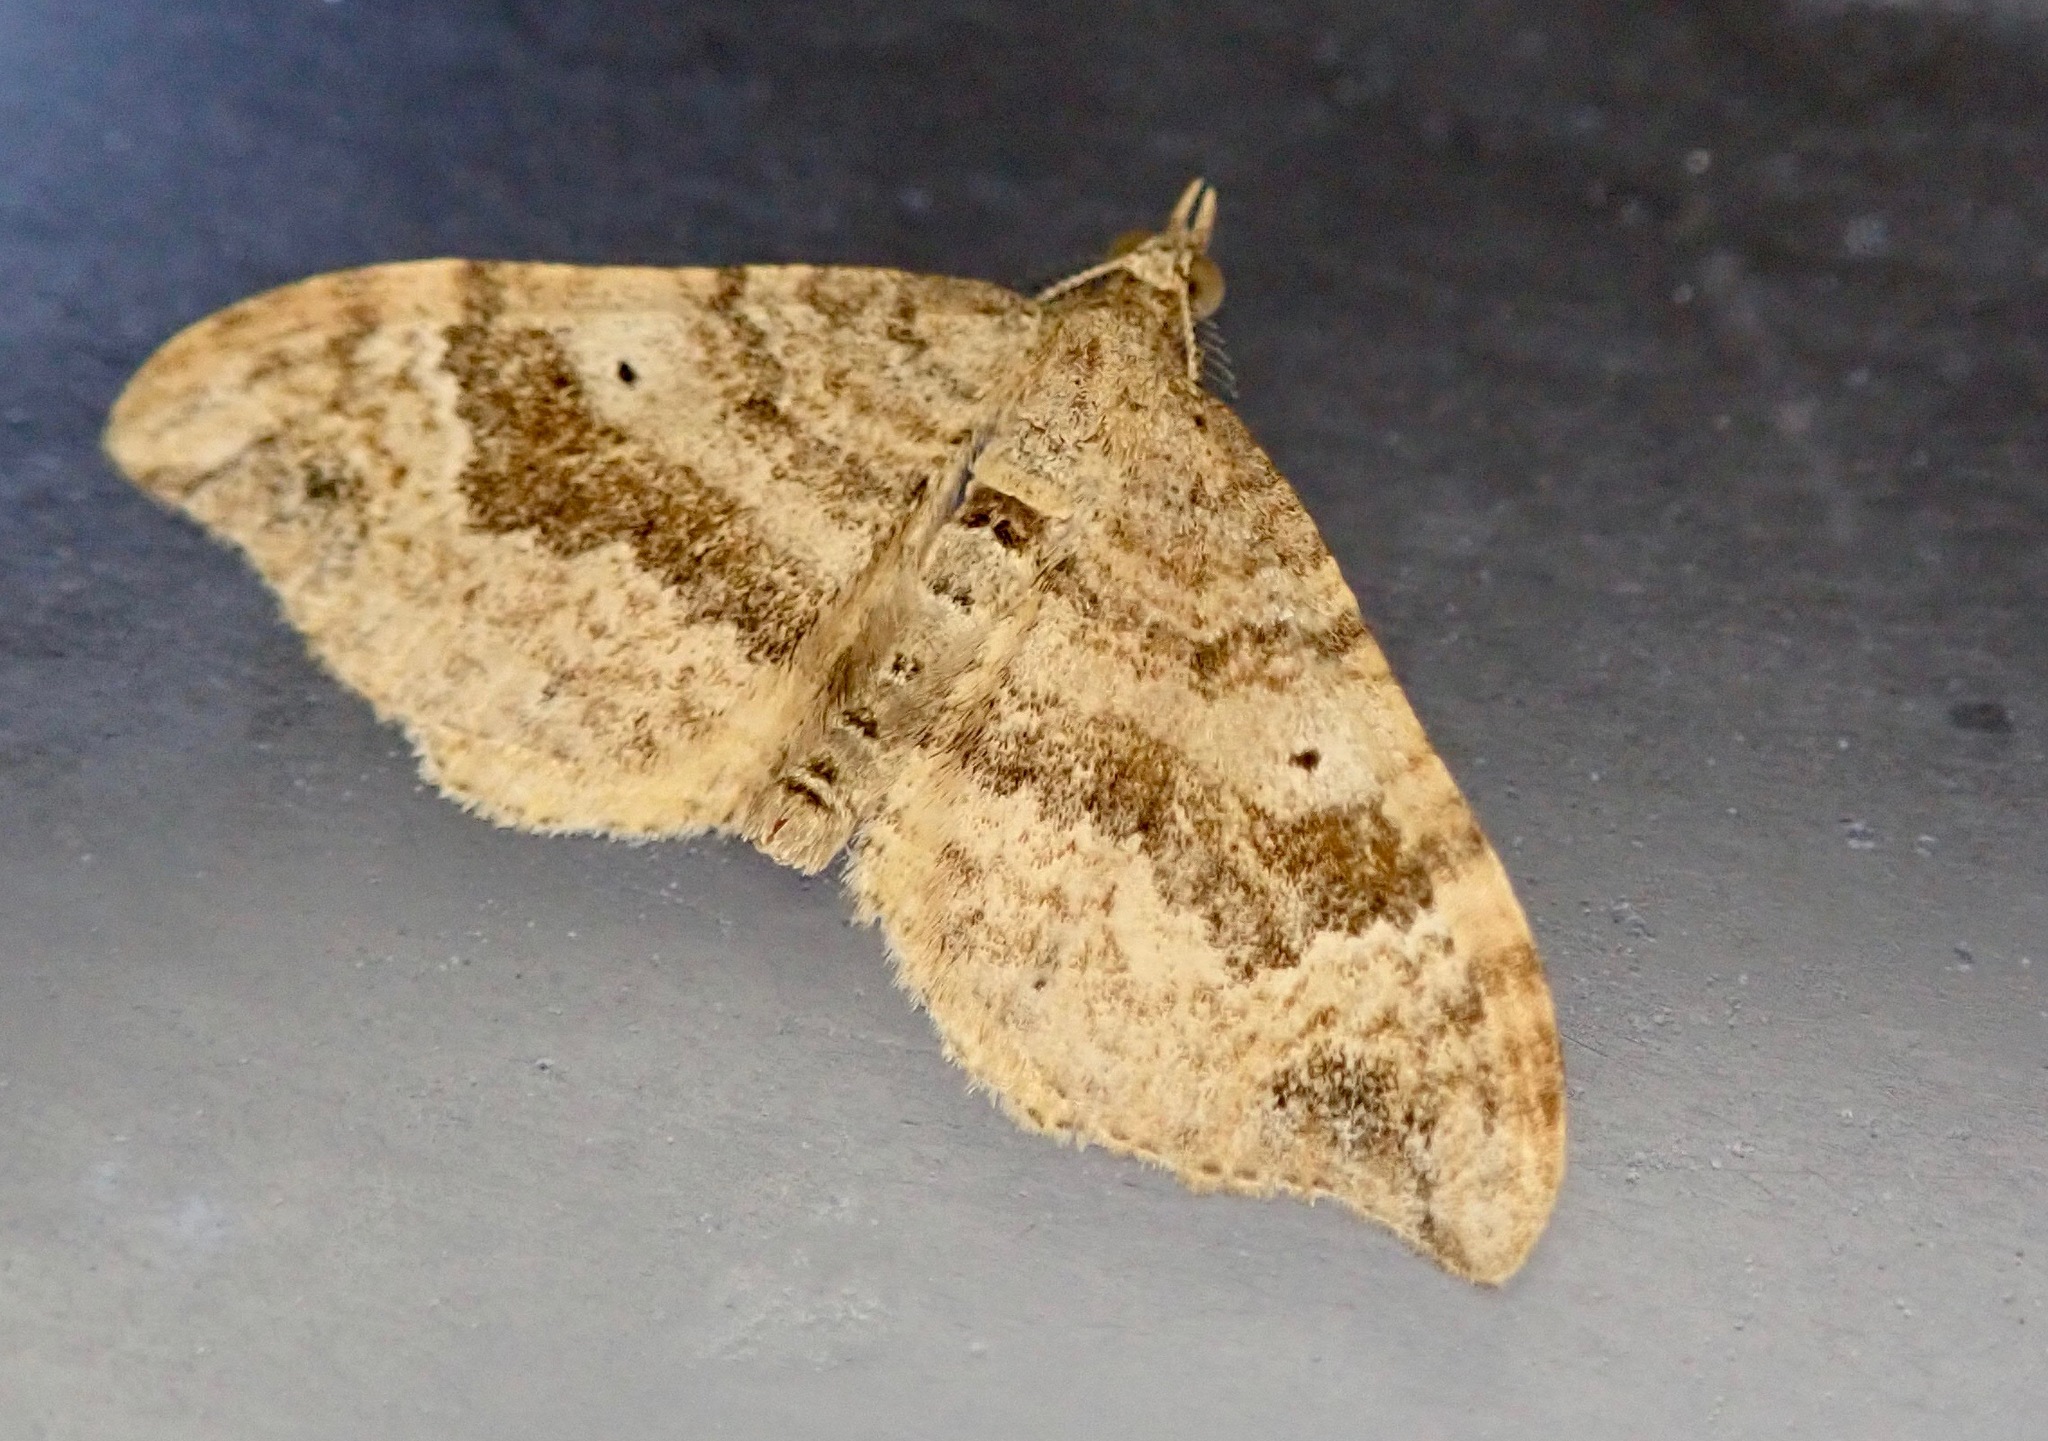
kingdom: Animalia
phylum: Arthropoda
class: Insecta
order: Lepidoptera
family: Geometridae
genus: Homodotis
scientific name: Homodotis megaspilata
